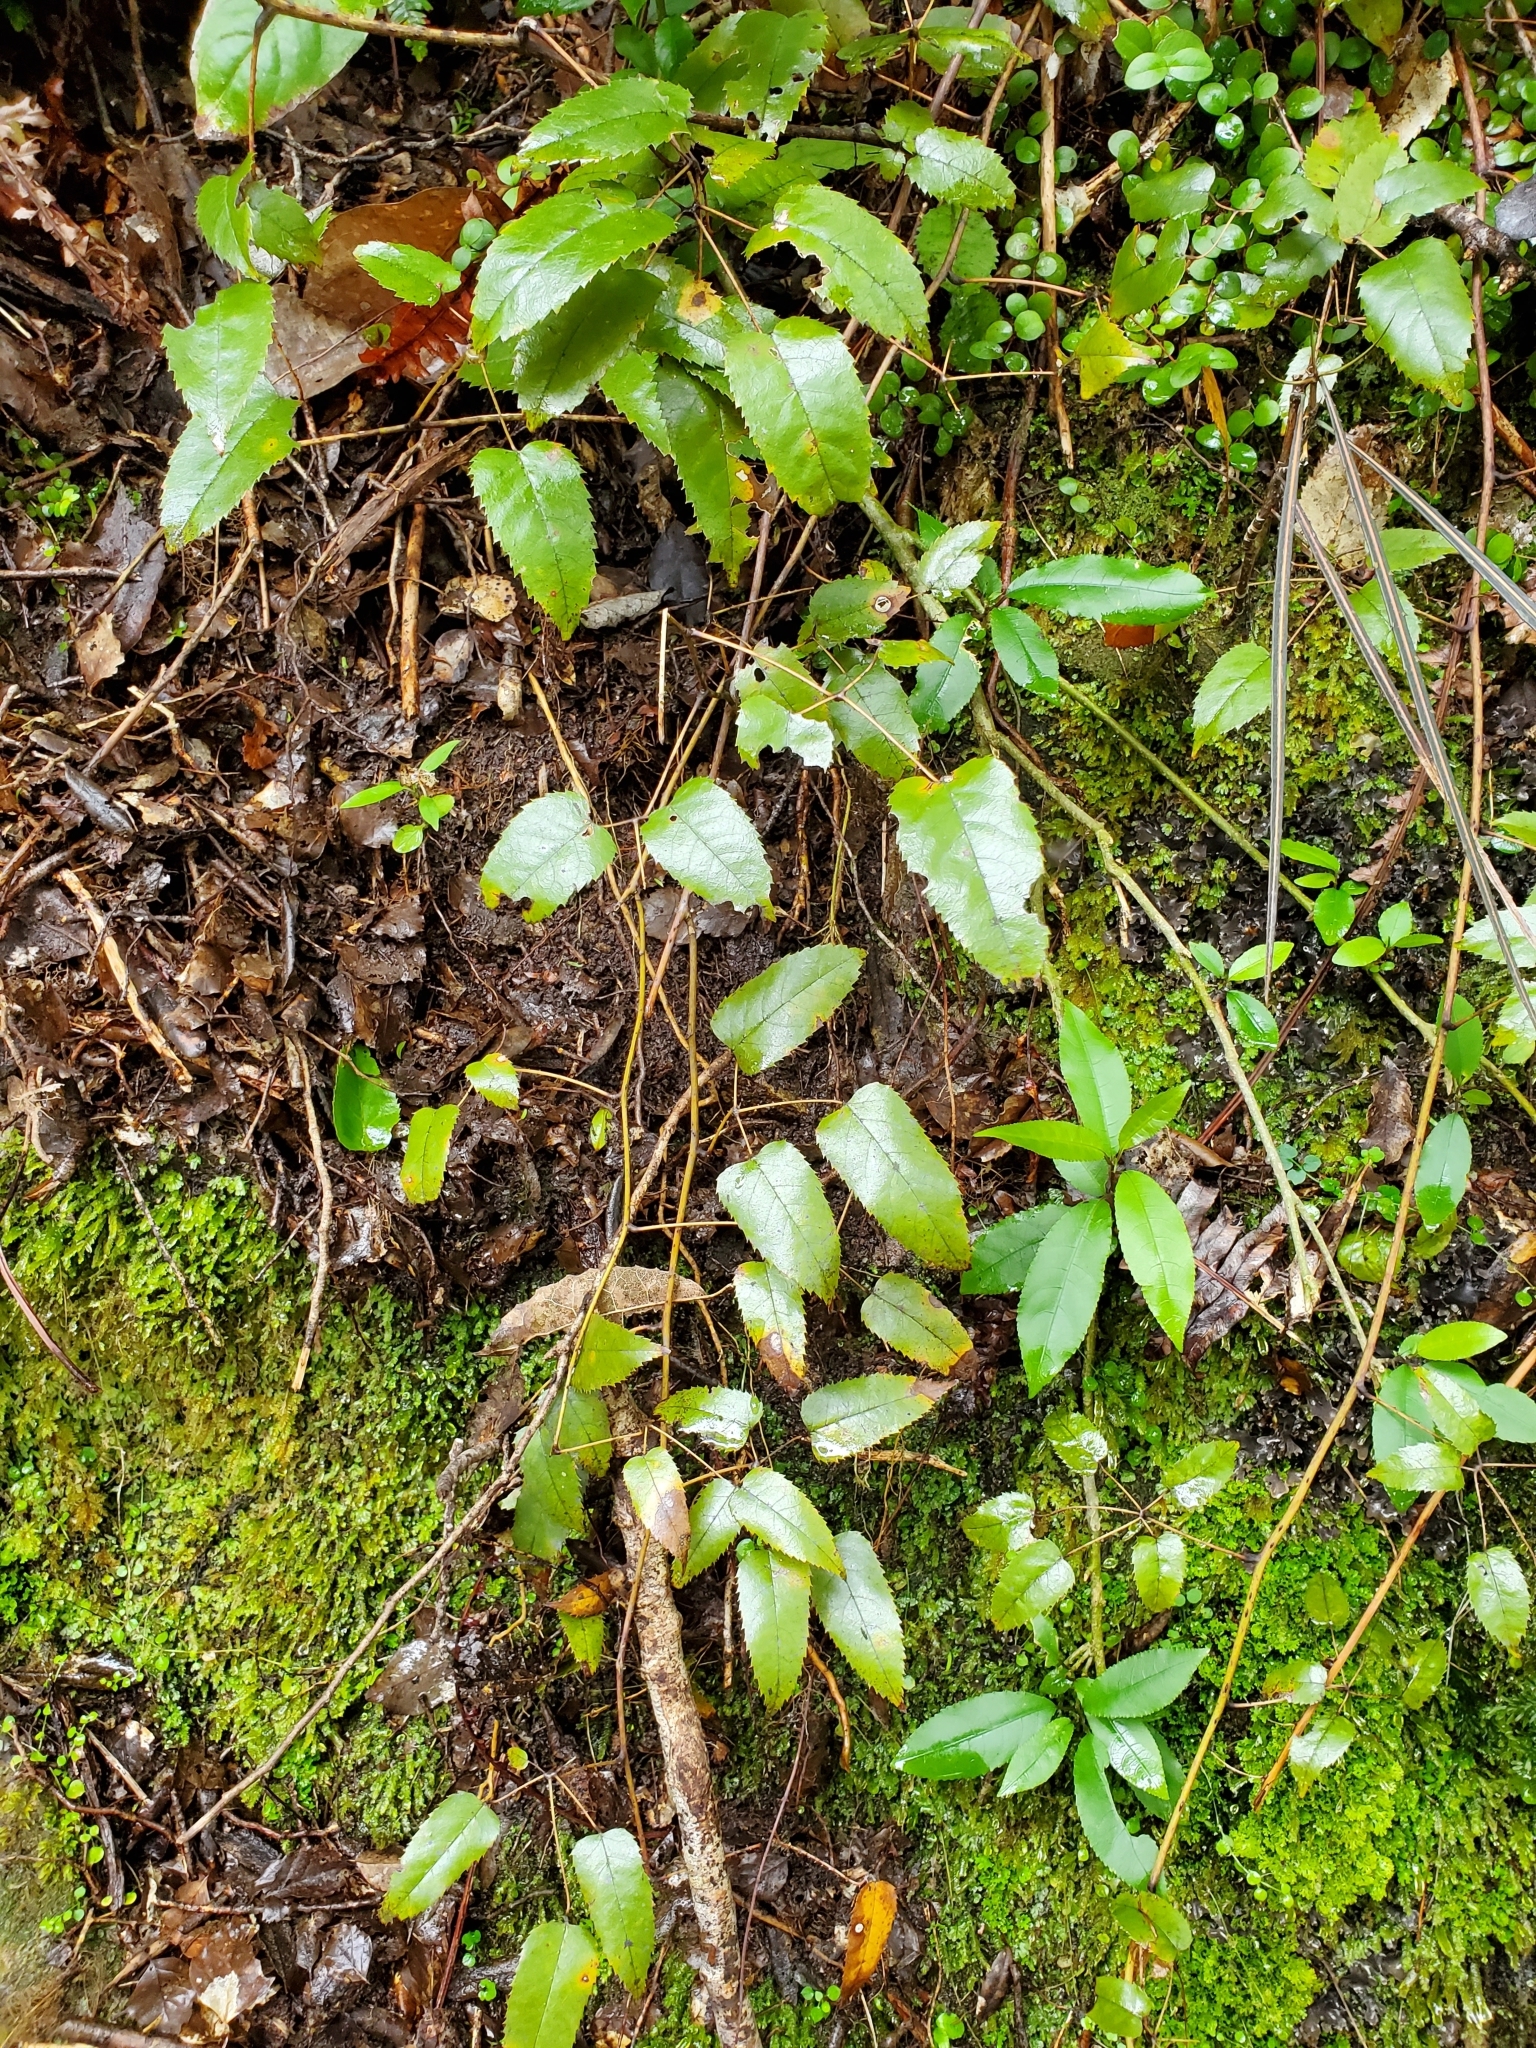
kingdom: Plantae
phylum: Tracheophyta
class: Magnoliopsida
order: Rosales
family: Rosaceae
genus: Rubus
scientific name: Rubus cissoides
